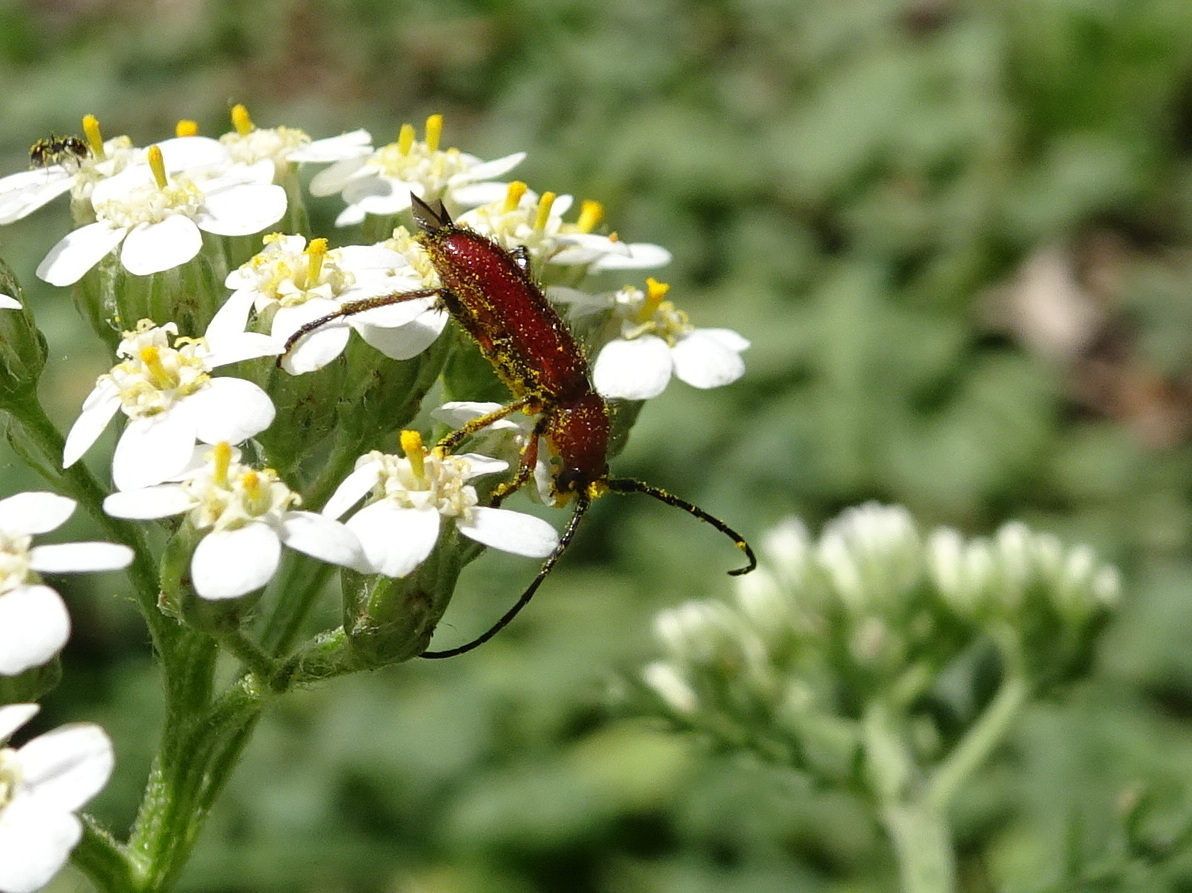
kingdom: Animalia
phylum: Arthropoda
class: Insecta
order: Coleoptera
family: Cerambycidae
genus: Batyle
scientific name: Batyle suturalis
